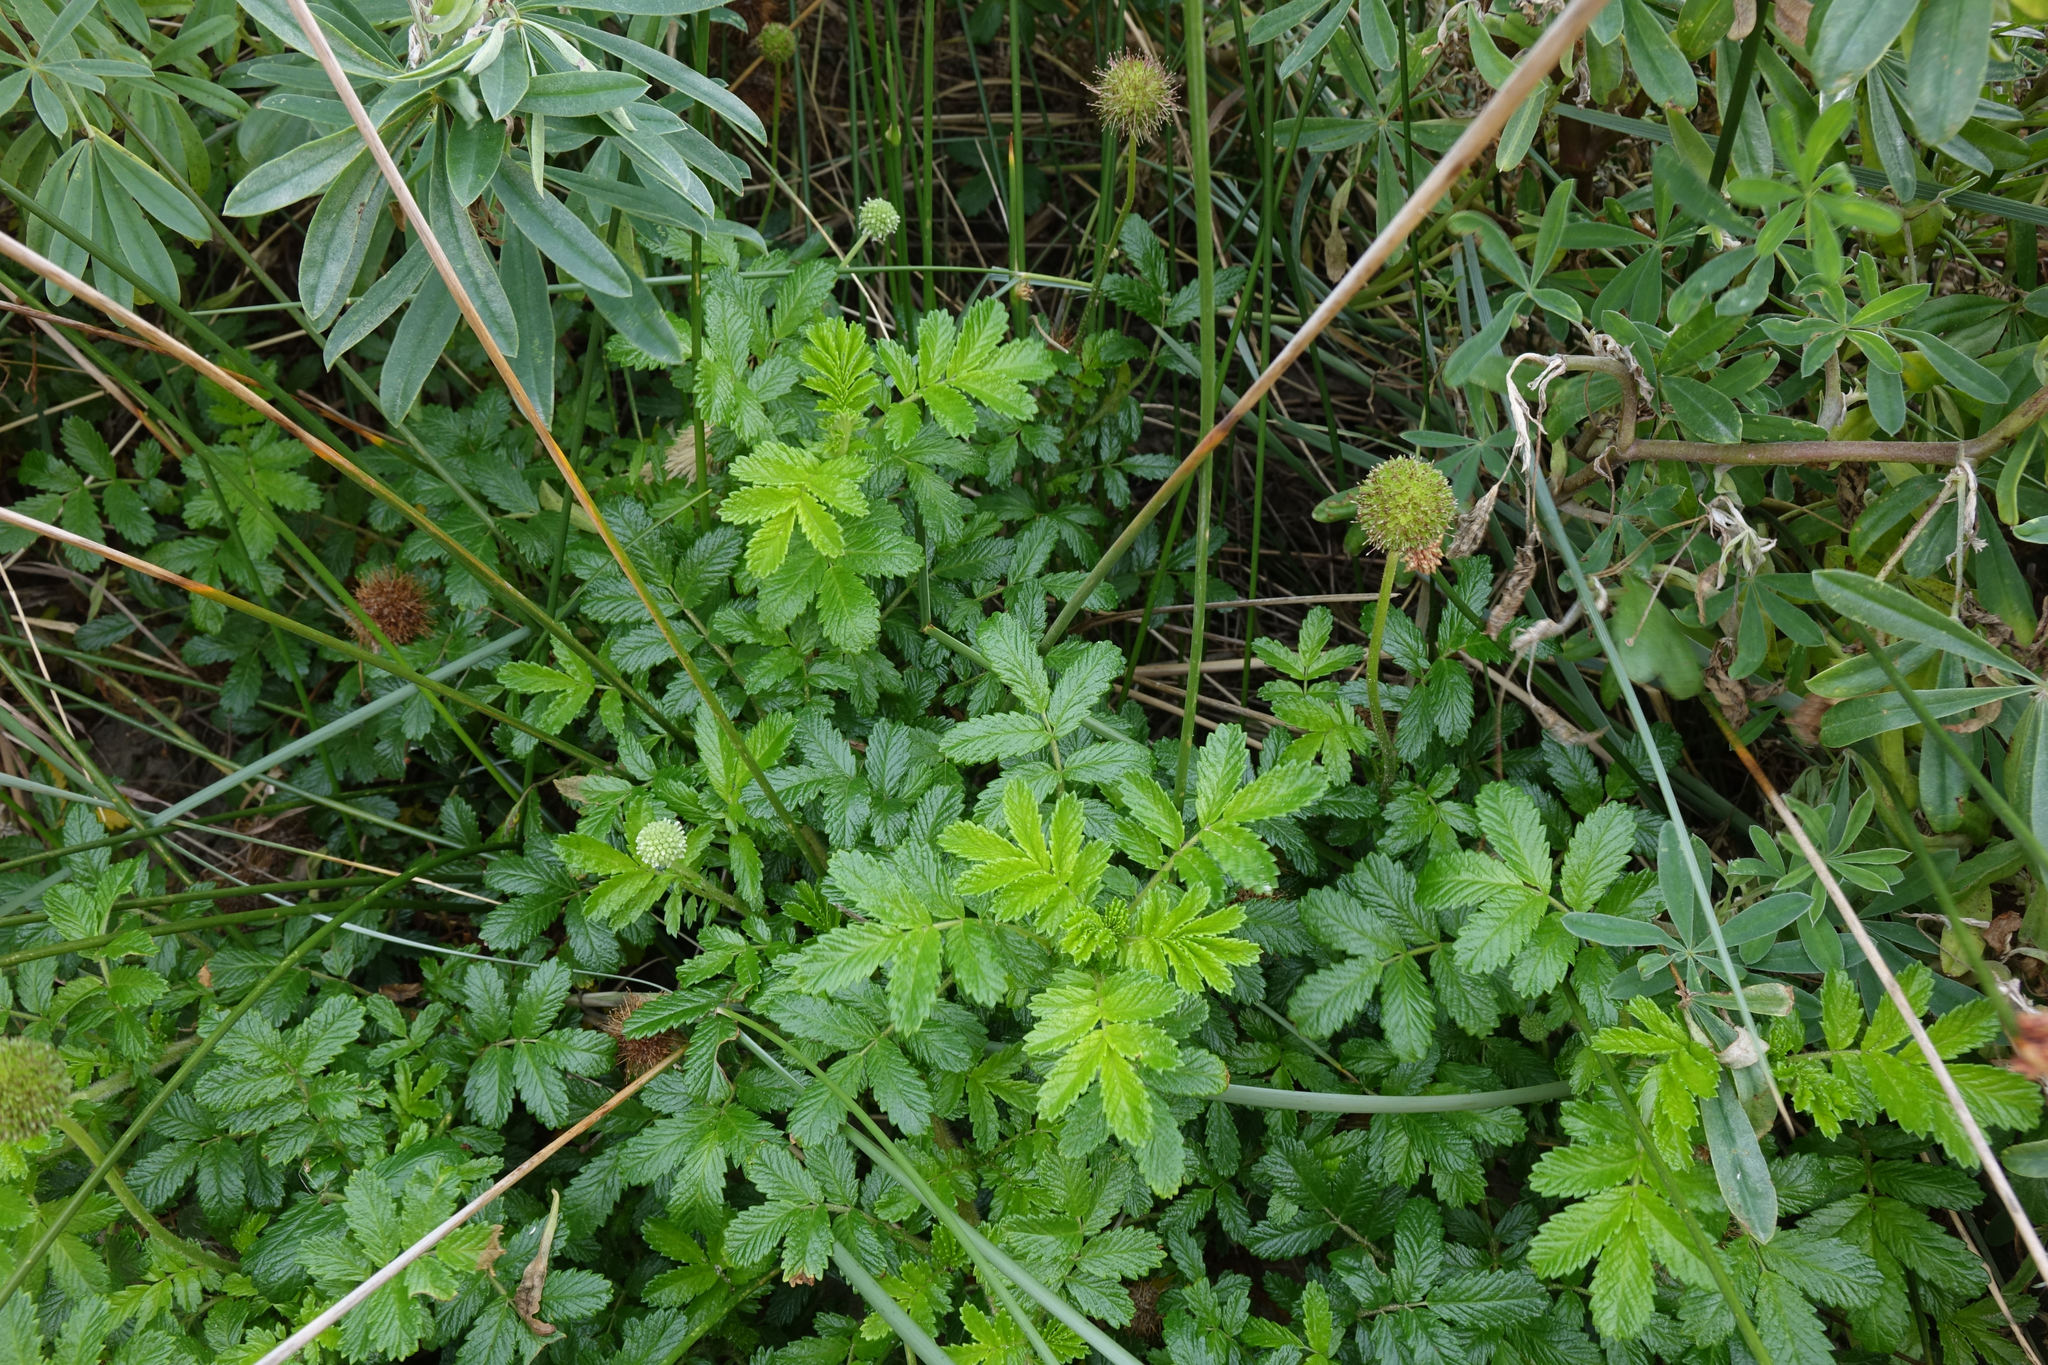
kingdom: Plantae
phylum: Tracheophyta
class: Magnoliopsida
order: Rosales
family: Rosaceae
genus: Acaena
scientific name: Acaena pallida
